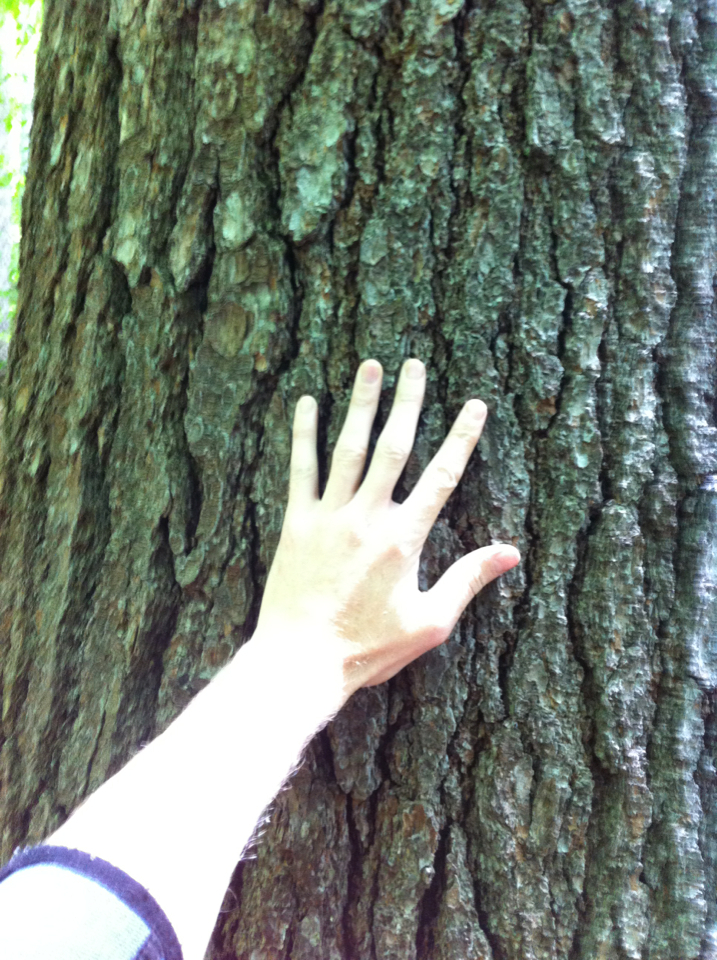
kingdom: Plantae
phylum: Tracheophyta
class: Pinopsida
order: Pinales
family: Pinaceae
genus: Pinus
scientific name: Pinus strobus
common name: Weymouth pine
